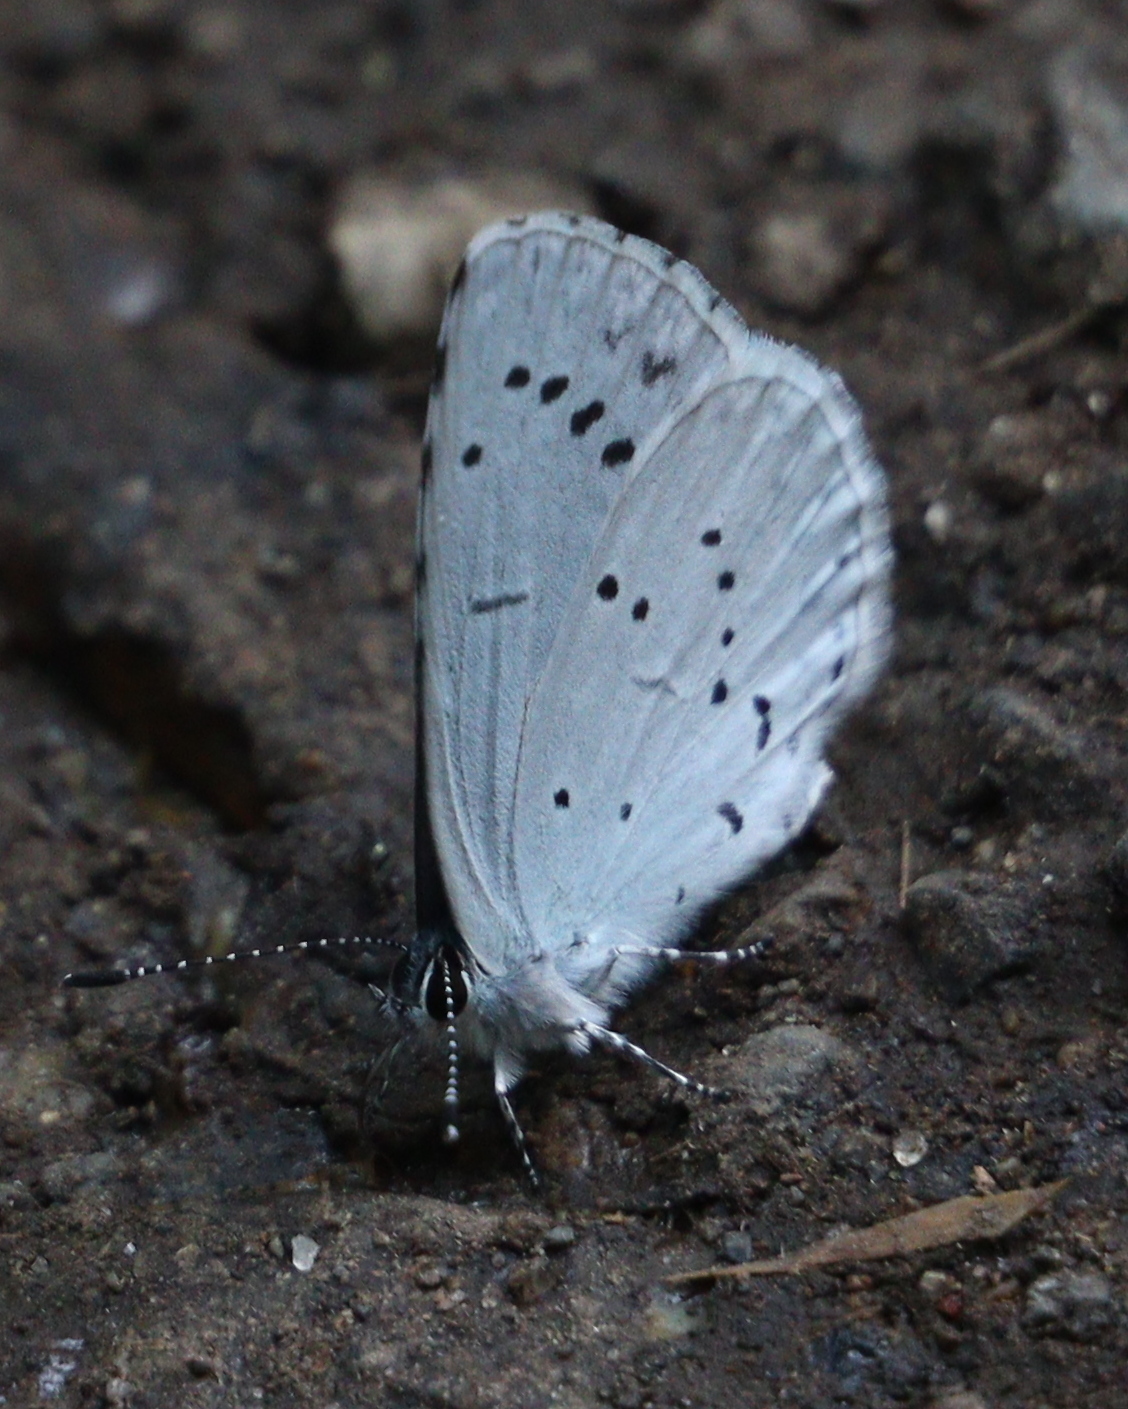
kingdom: Animalia
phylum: Arthropoda
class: Insecta
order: Lepidoptera
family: Lycaenidae
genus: Celastrina
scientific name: Celastrina argiolus
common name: Holly blue
